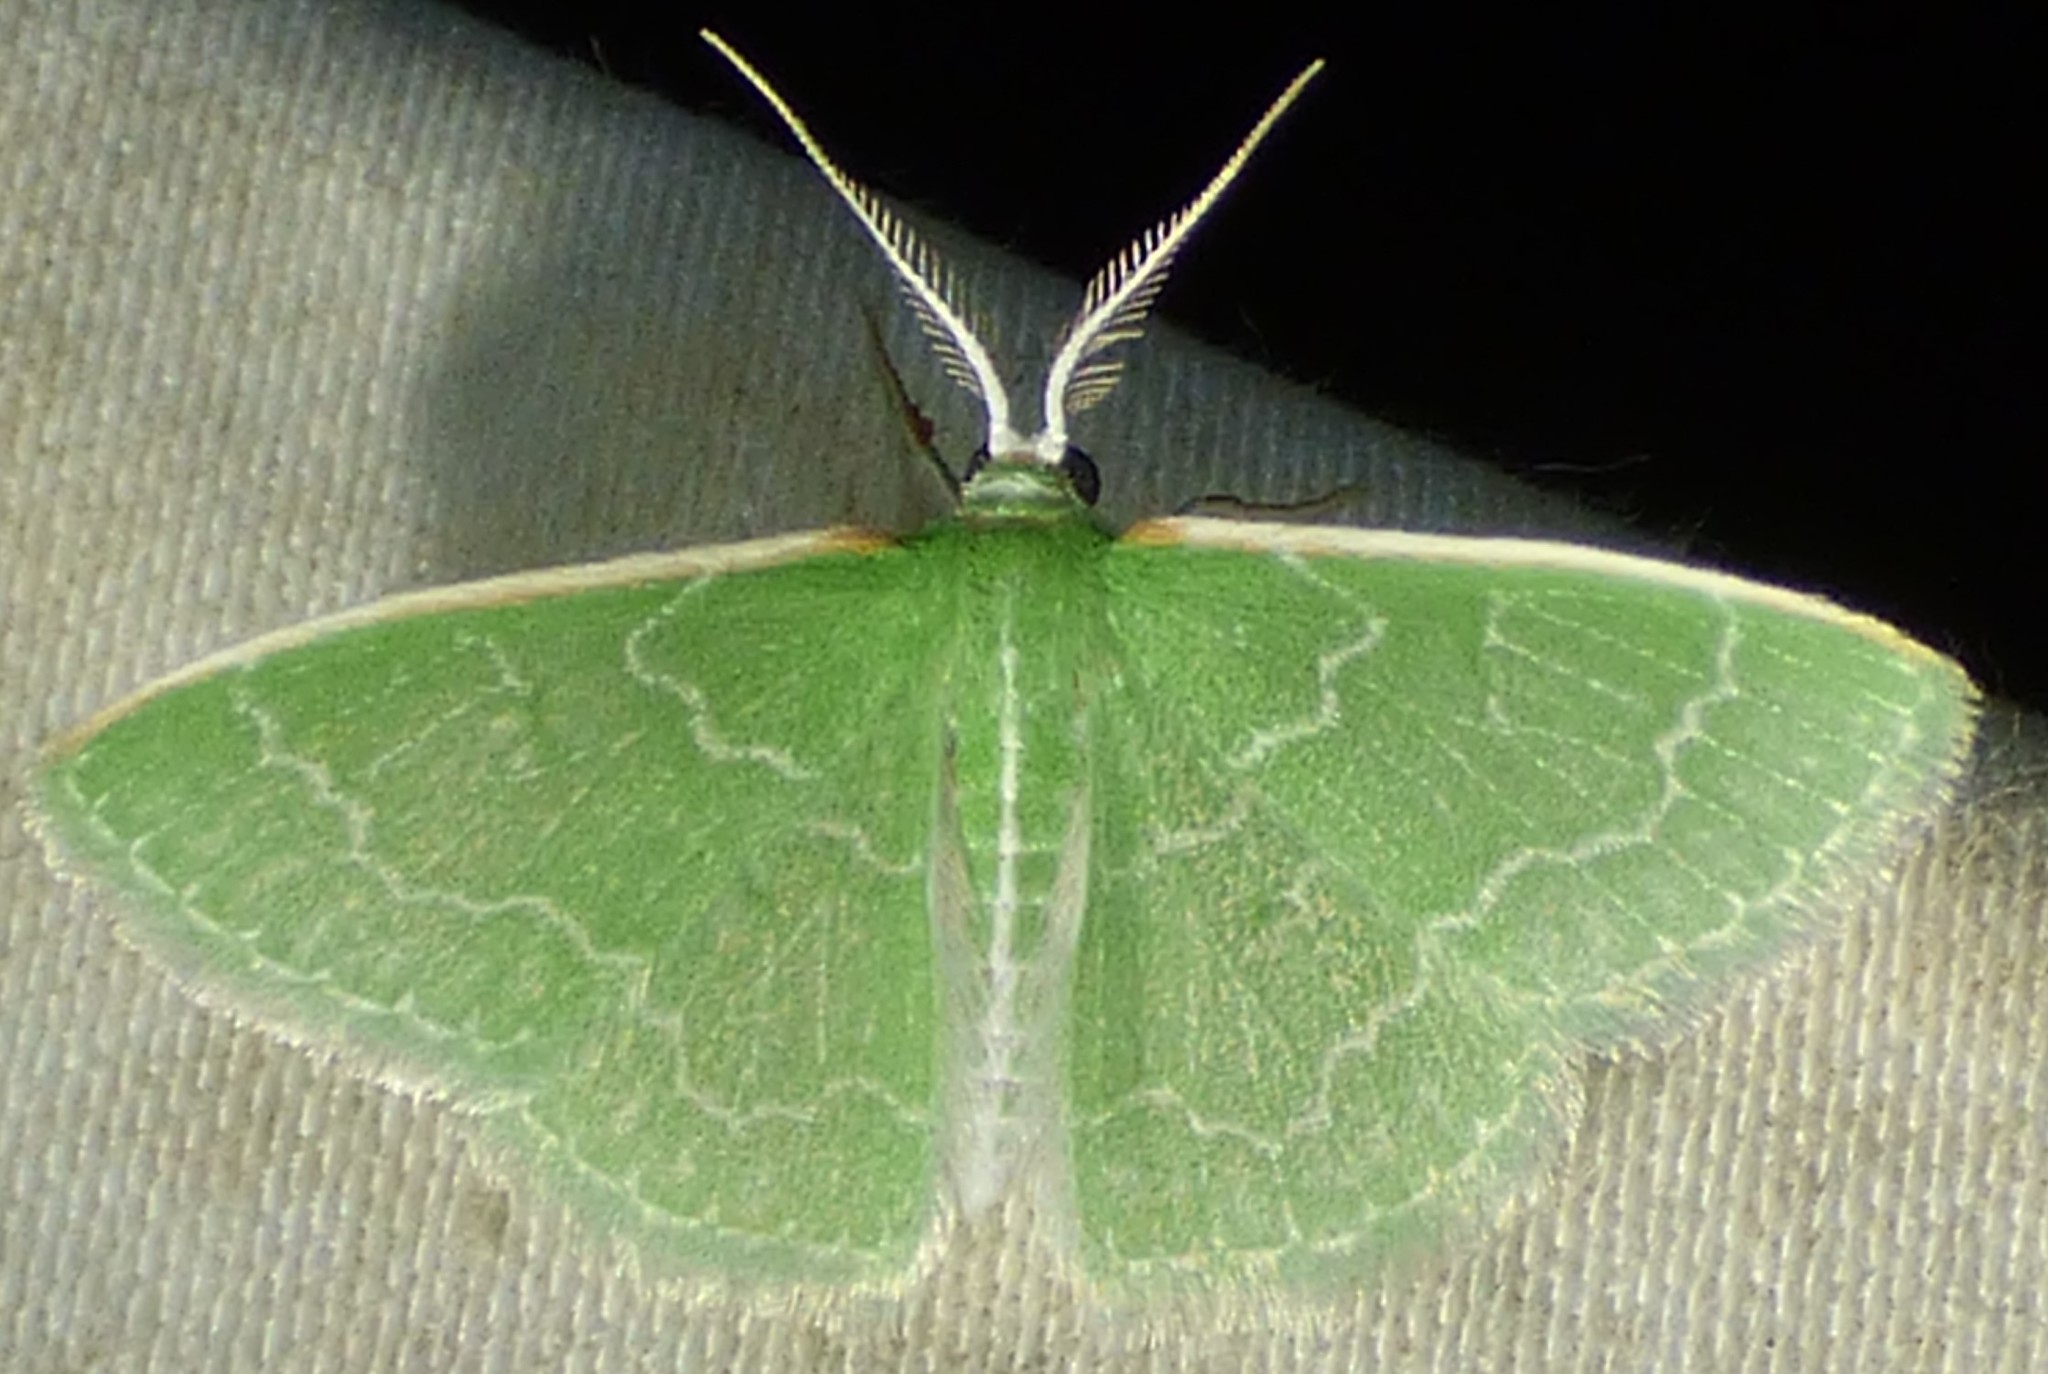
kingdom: Animalia
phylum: Arthropoda
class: Insecta
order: Lepidoptera
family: Geometridae
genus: Synchlora
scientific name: Synchlora frondaria
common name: Southern emerald
